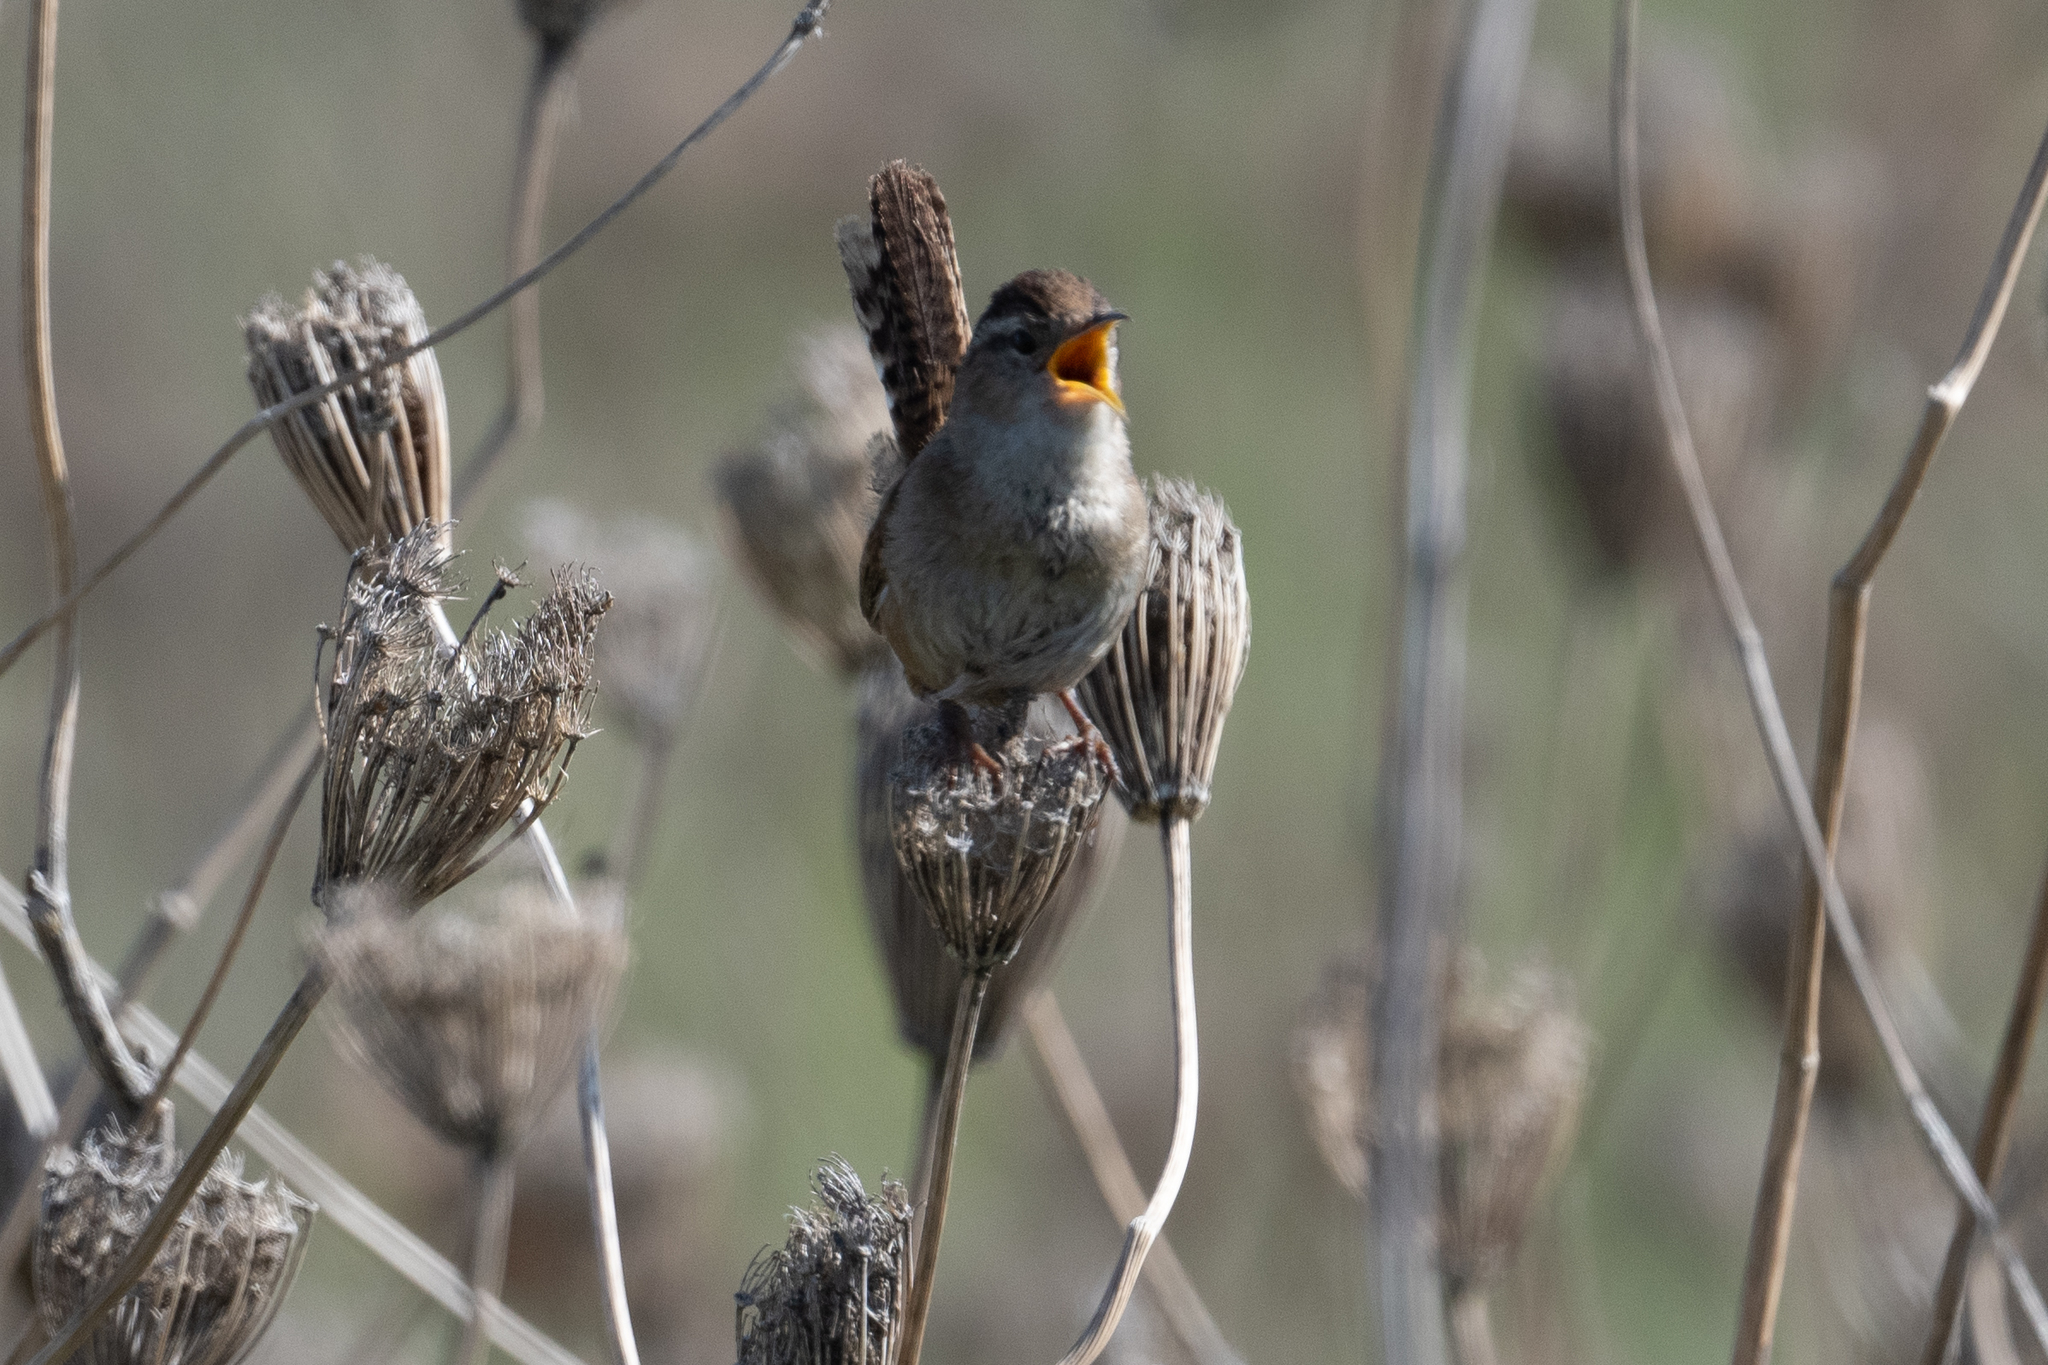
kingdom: Animalia
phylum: Chordata
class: Aves
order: Passeriformes
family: Troglodytidae
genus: Cistothorus
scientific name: Cistothorus palustris
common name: Marsh wren
